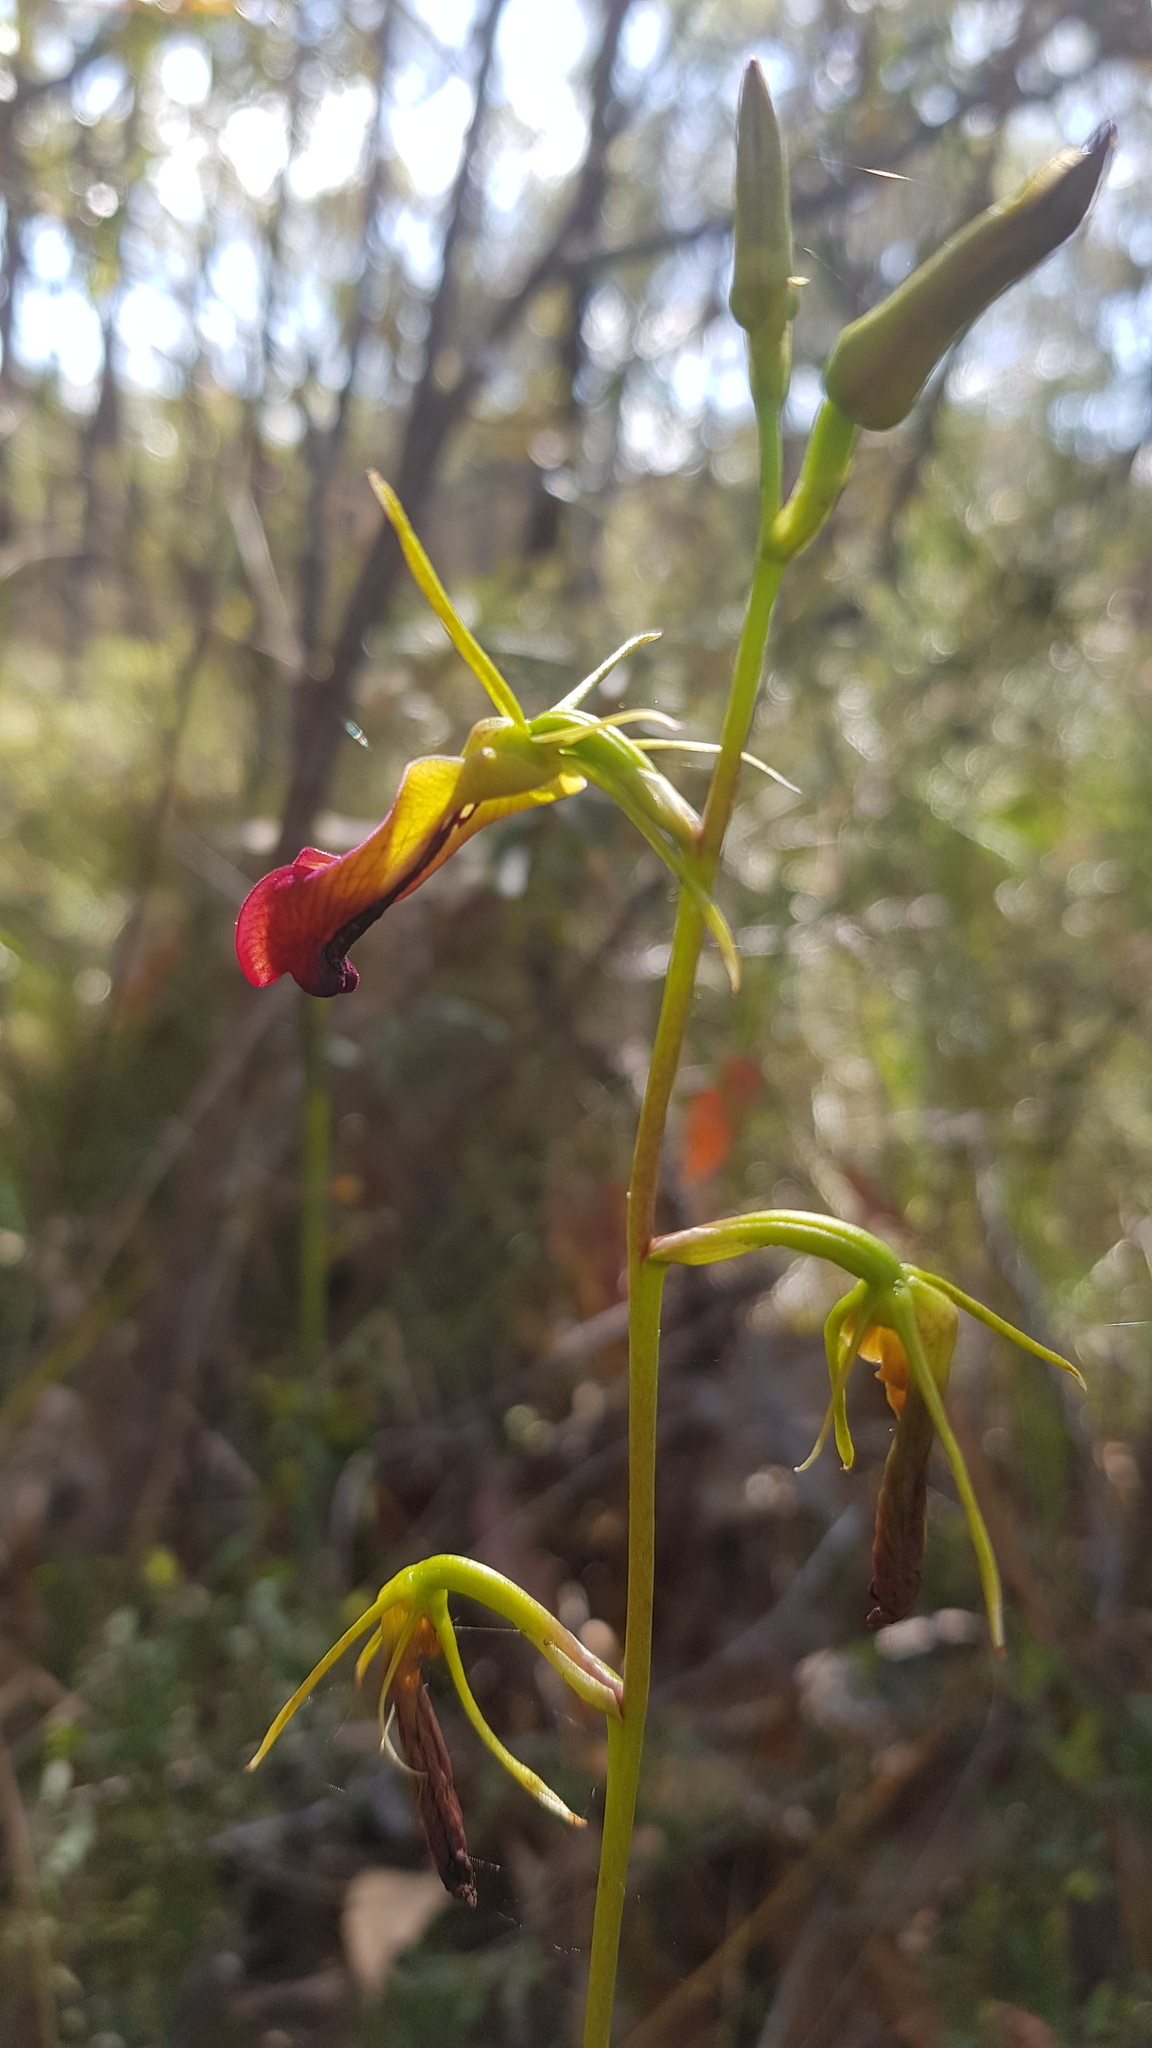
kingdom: Plantae
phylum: Tracheophyta
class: Liliopsida
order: Asparagales
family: Orchidaceae
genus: Cryptostylis
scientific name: Cryptostylis subulata
